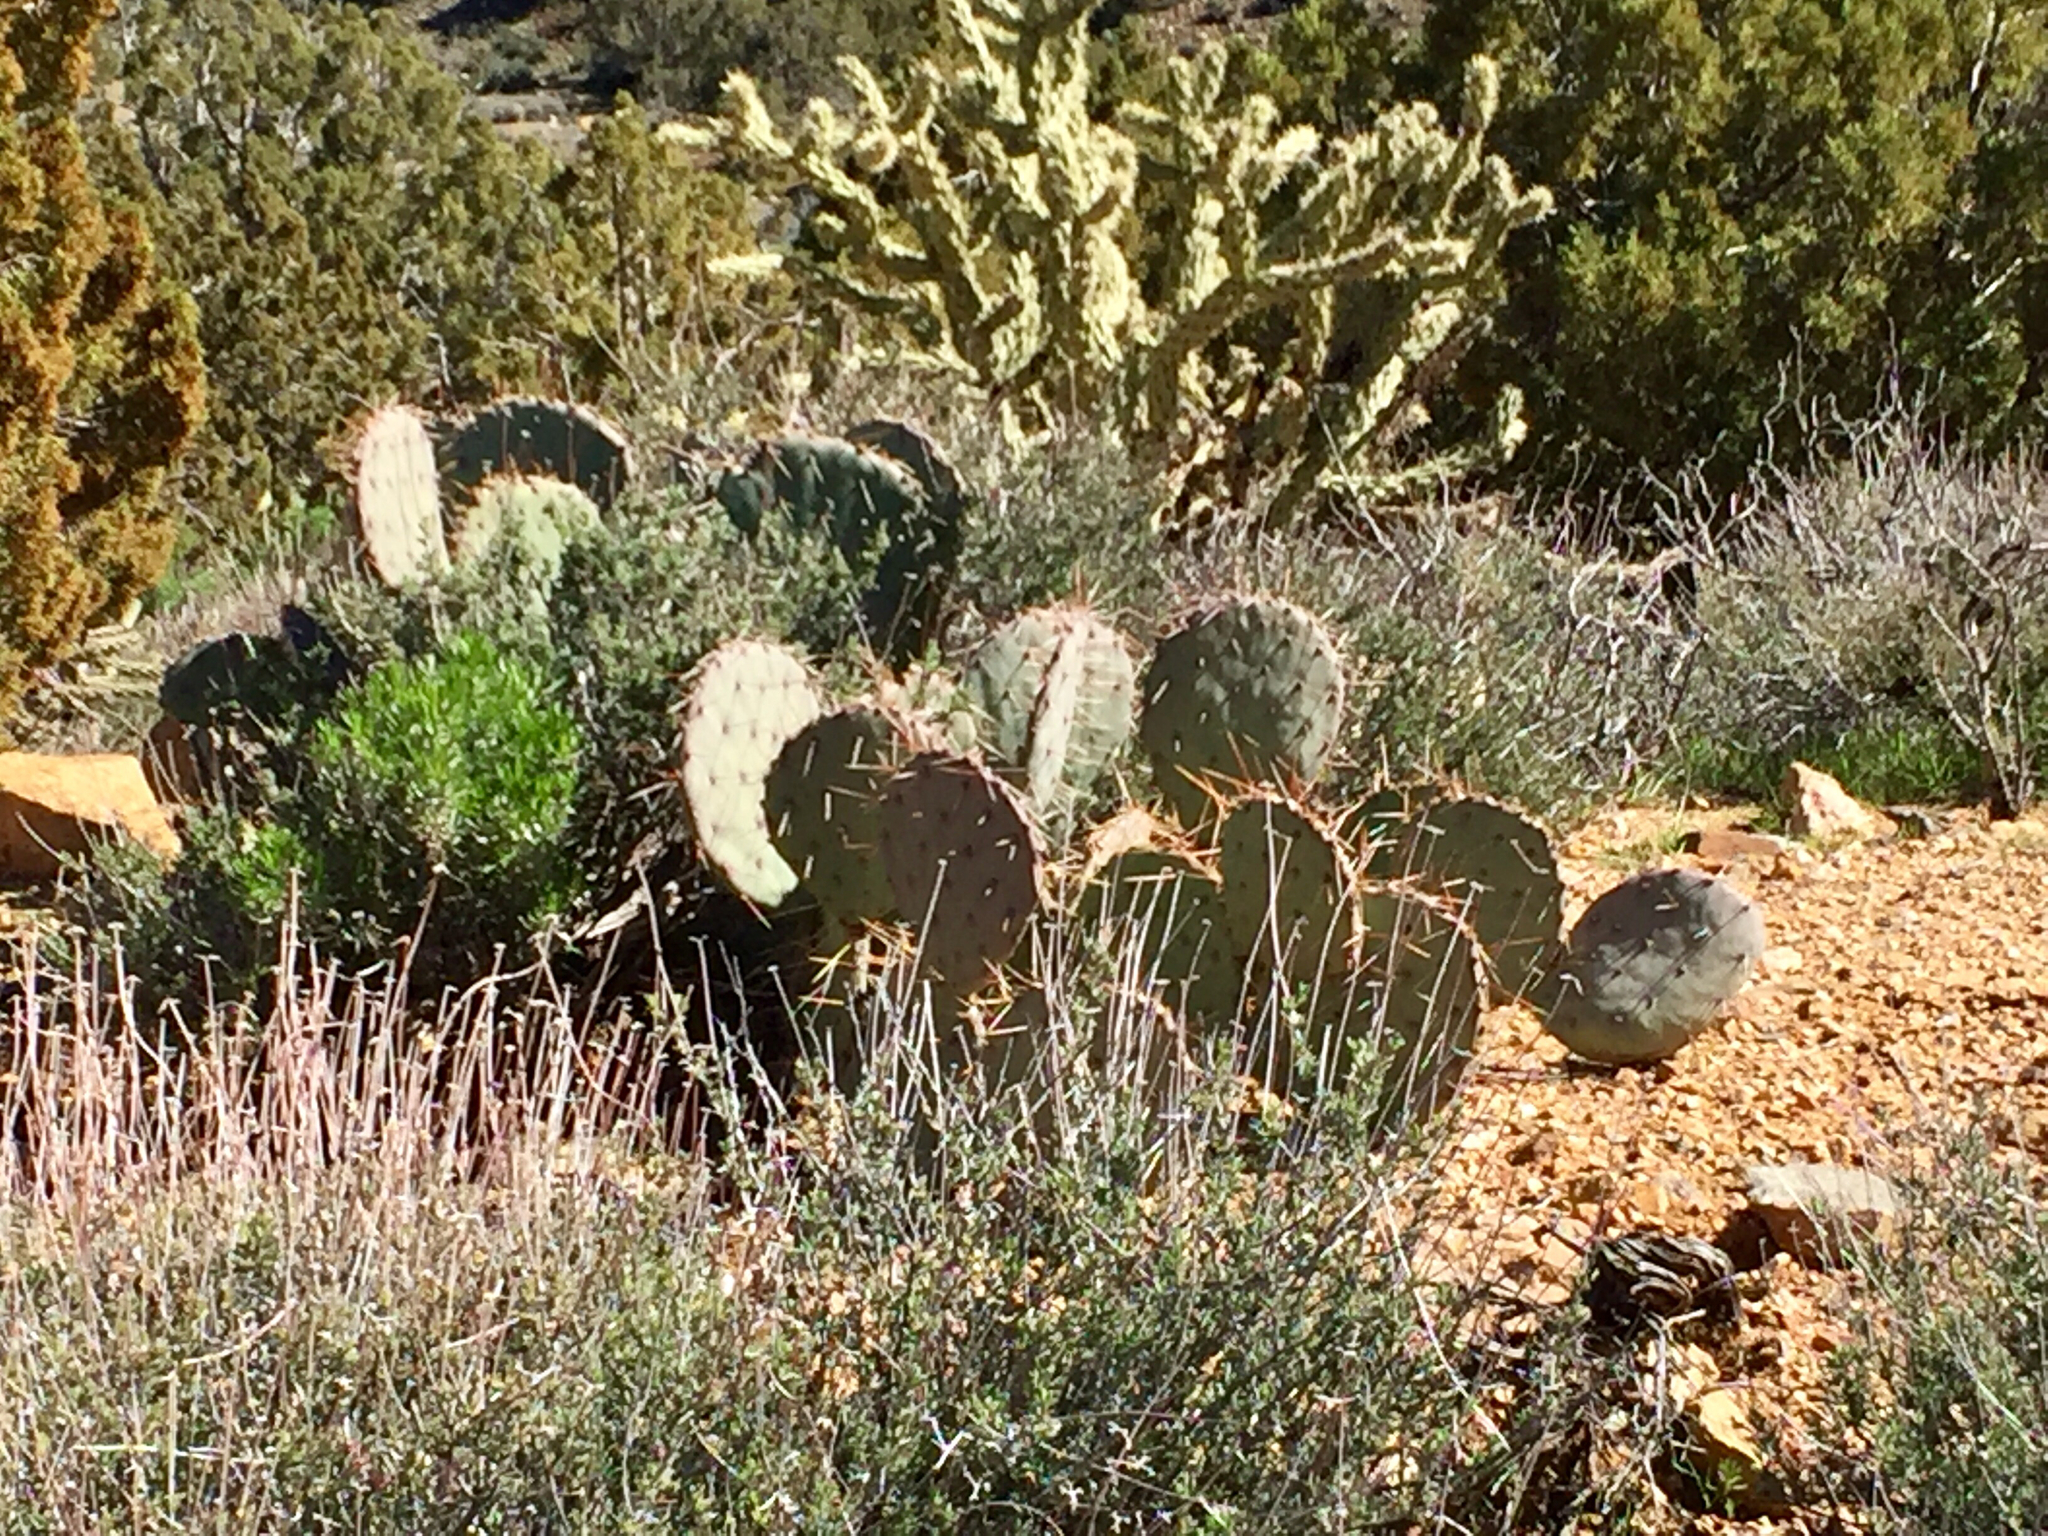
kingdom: Plantae
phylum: Tracheophyta
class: Magnoliopsida
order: Caryophyllales
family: Cactaceae
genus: Opuntia
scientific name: Opuntia phaeacantha
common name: New mexico prickly-pear
